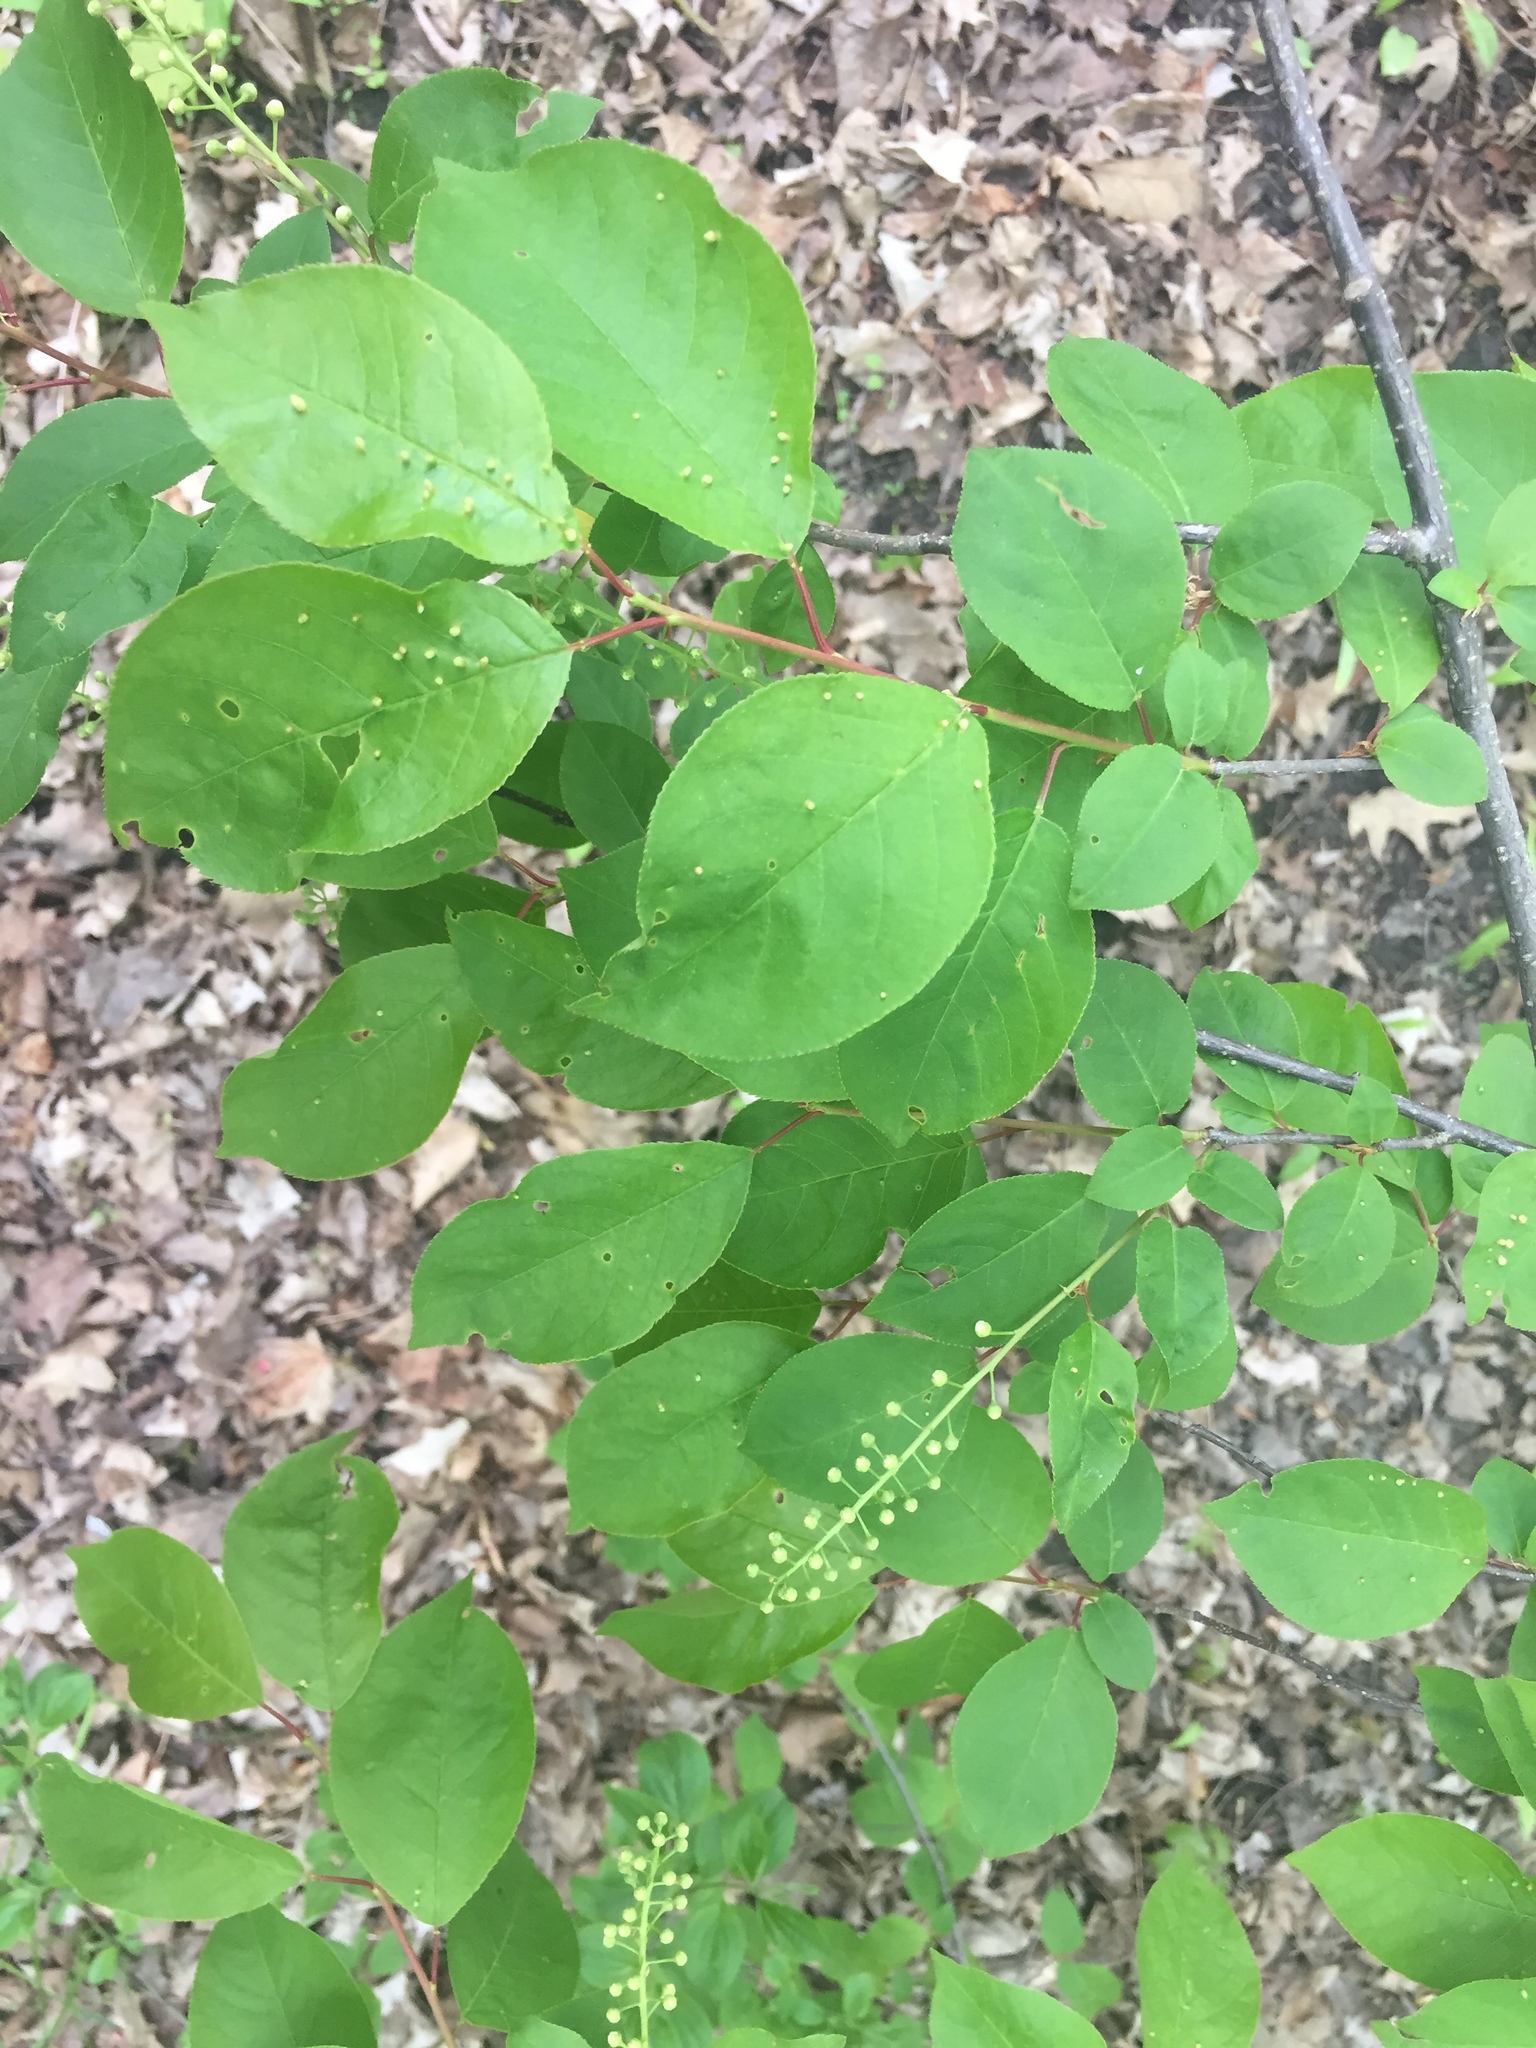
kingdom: Plantae
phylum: Tracheophyta
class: Magnoliopsida
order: Rosales
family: Rosaceae
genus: Prunus
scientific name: Prunus virginiana
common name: Chokecherry
